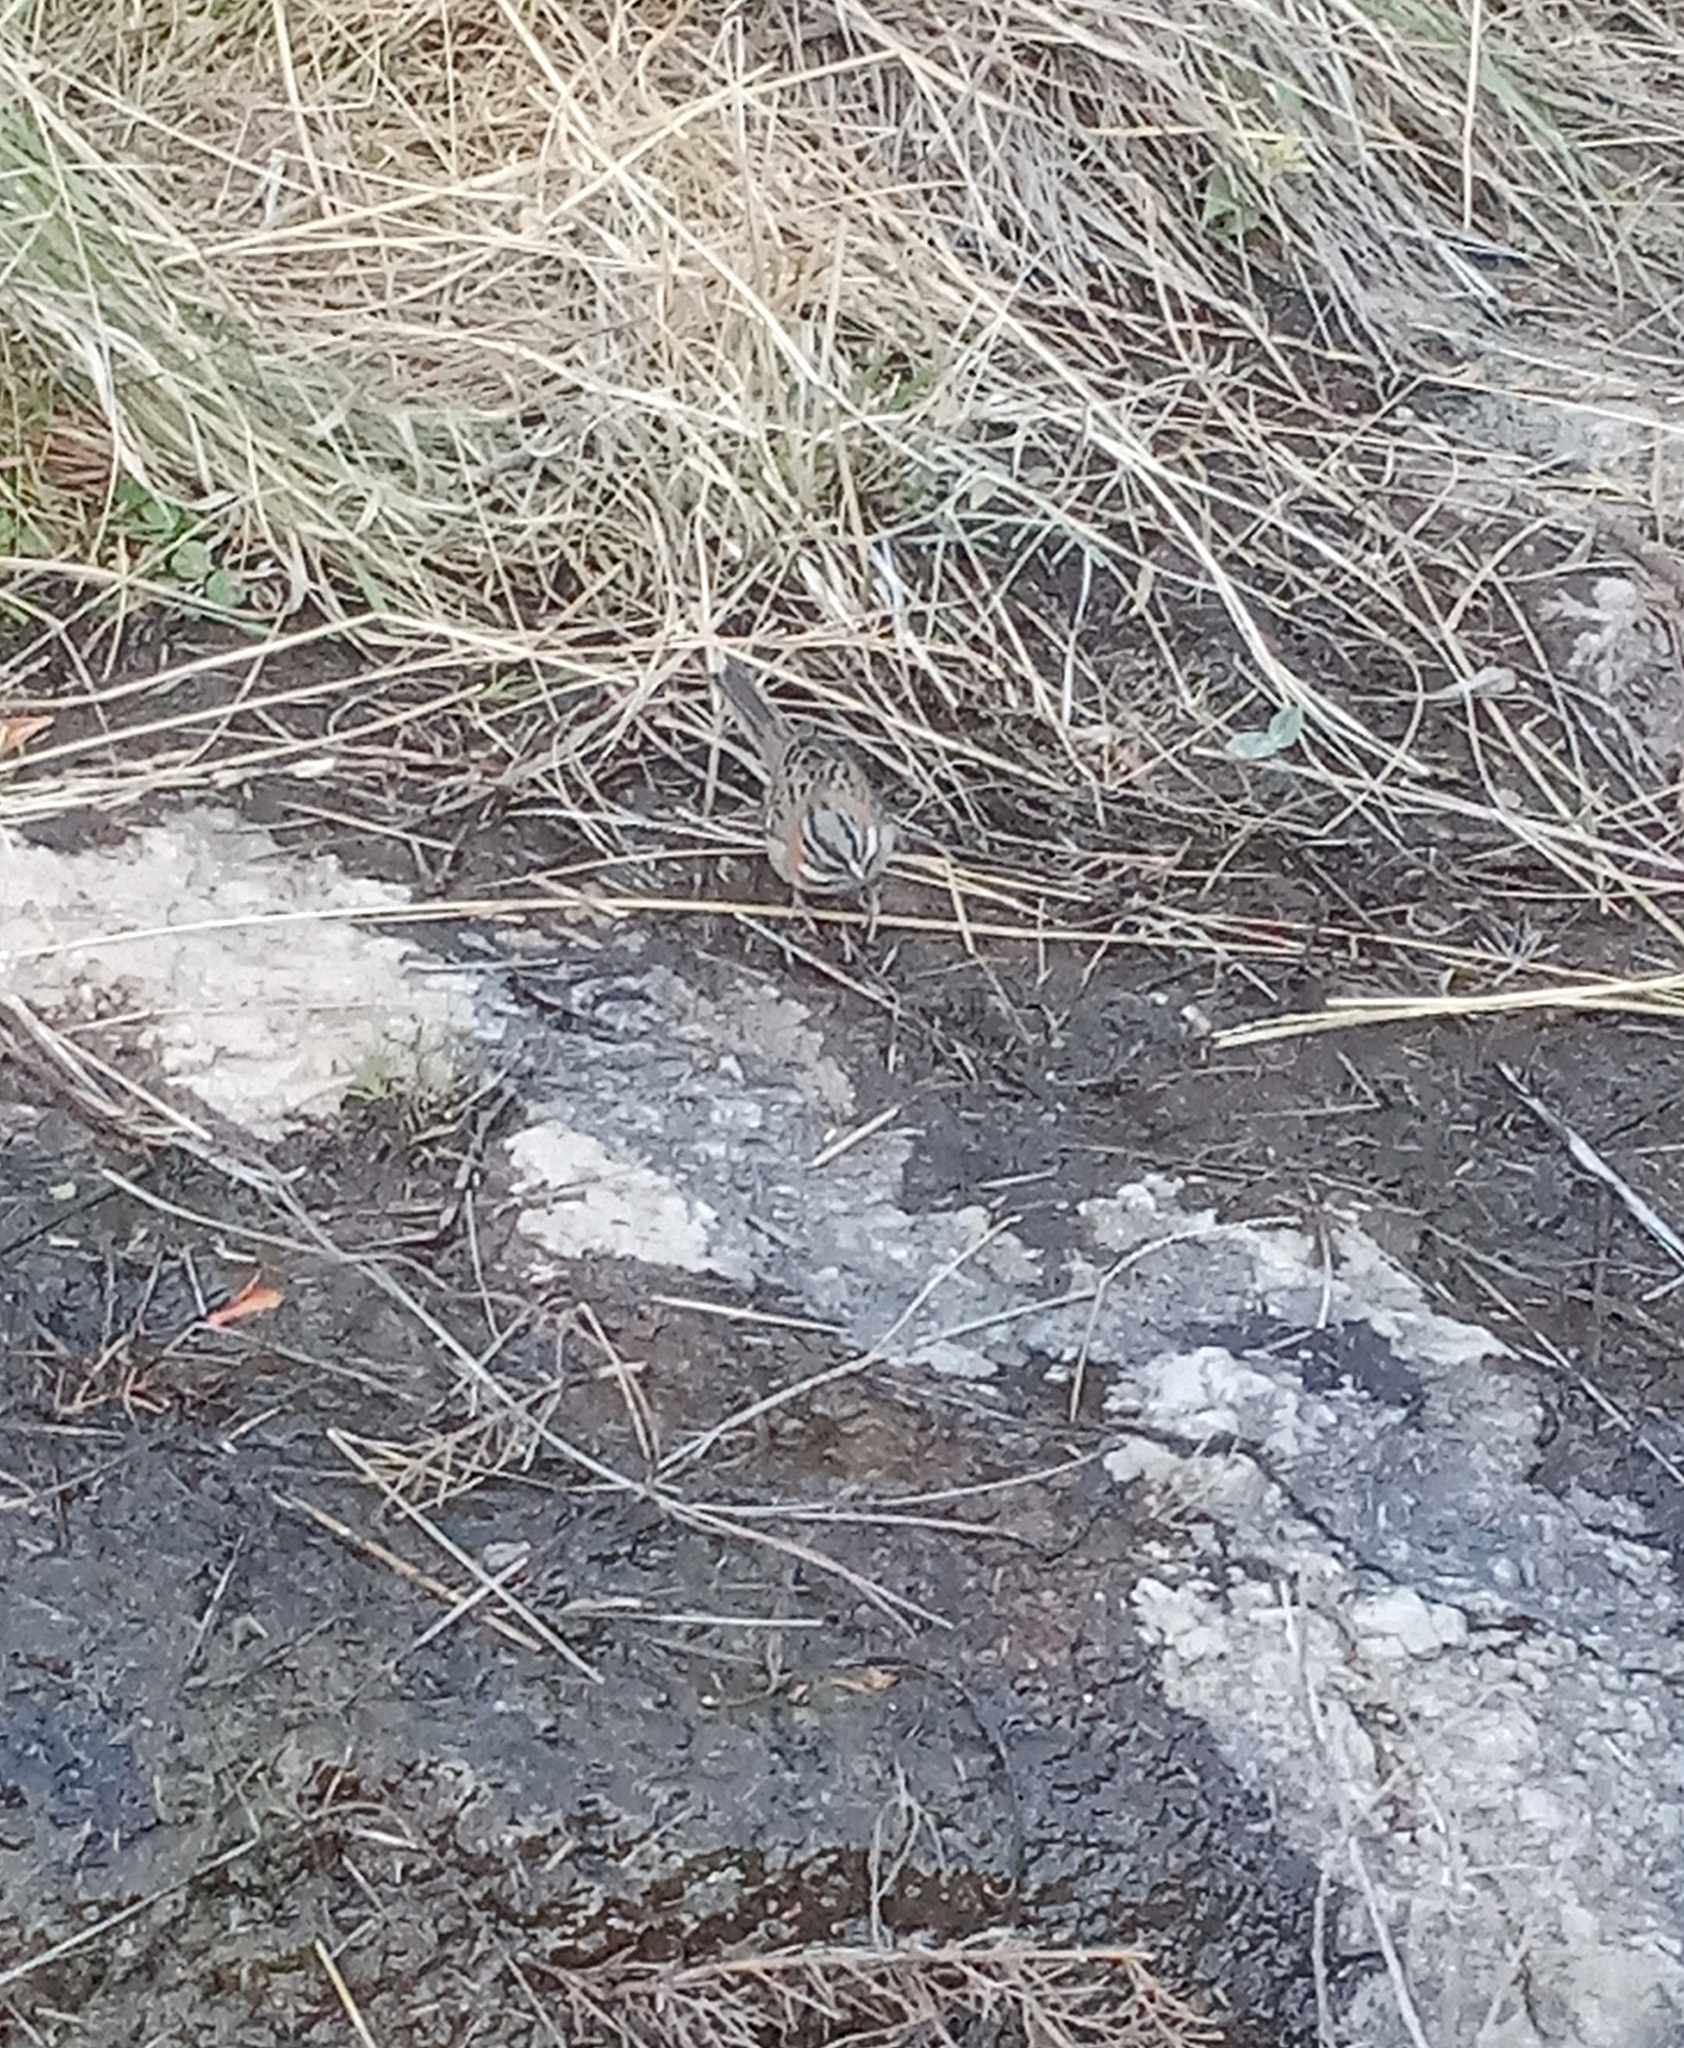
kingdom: Animalia
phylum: Chordata
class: Aves
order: Passeriformes
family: Passerellidae
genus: Zonotrichia
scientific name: Zonotrichia capensis
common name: Rufous-collared sparrow
